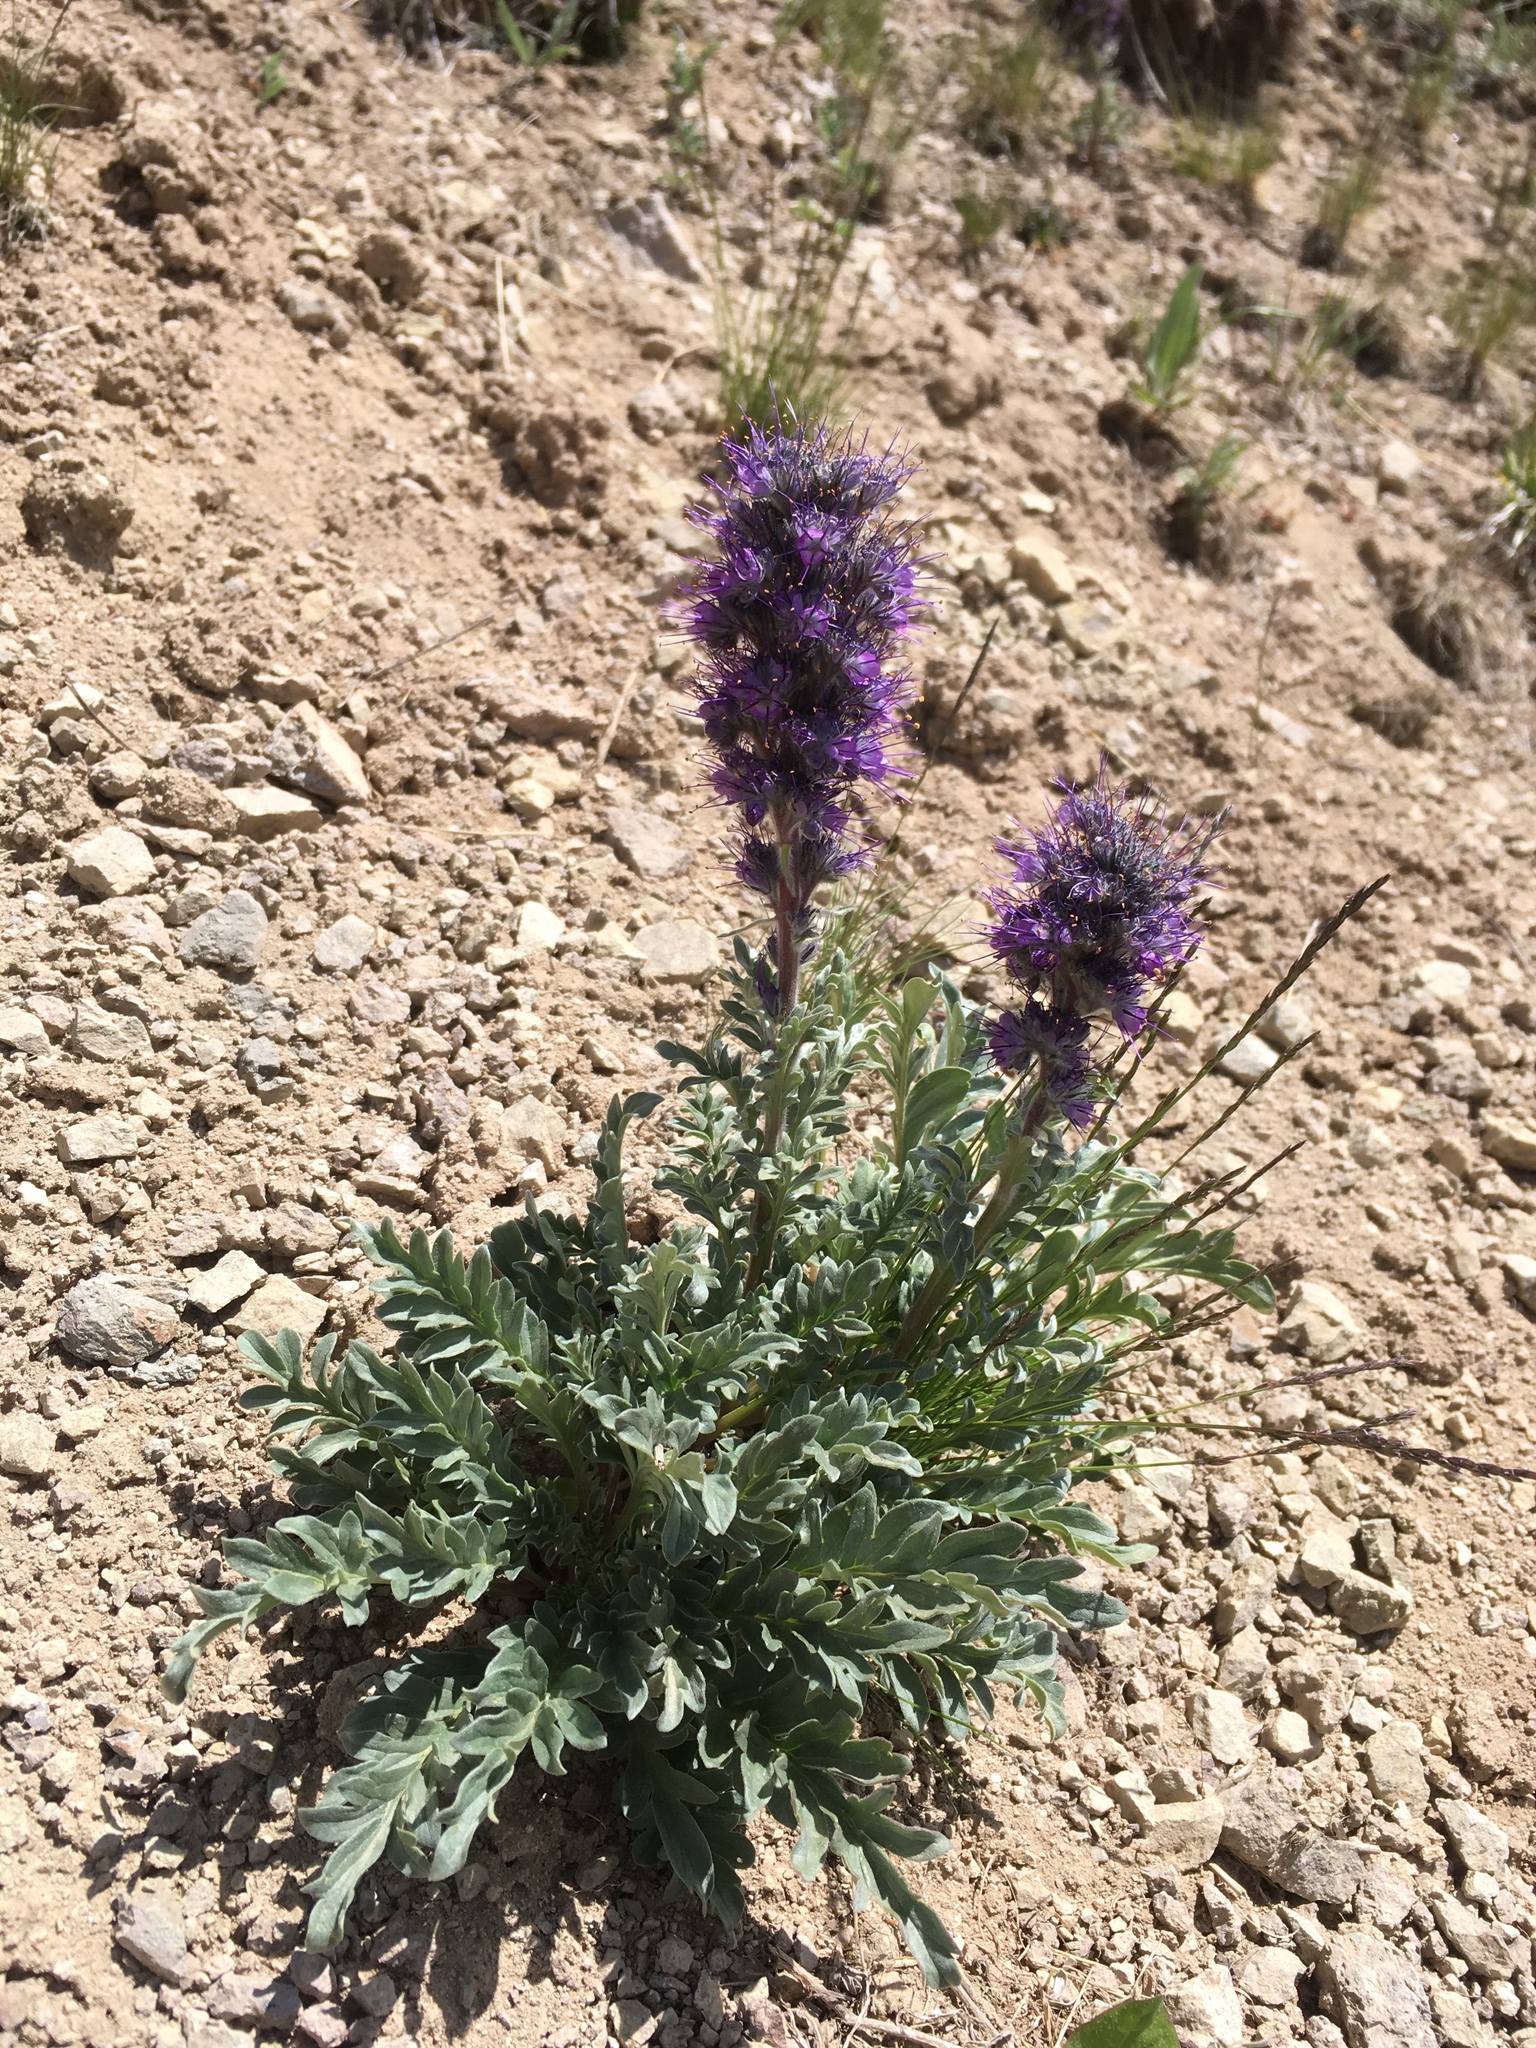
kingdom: Plantae
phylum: Tracheophyta
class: Magnoliopsida
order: Boraginales
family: Hydrophyllaceae
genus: Phacelia
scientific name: Phacelia sericea
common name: Silky phacelia
